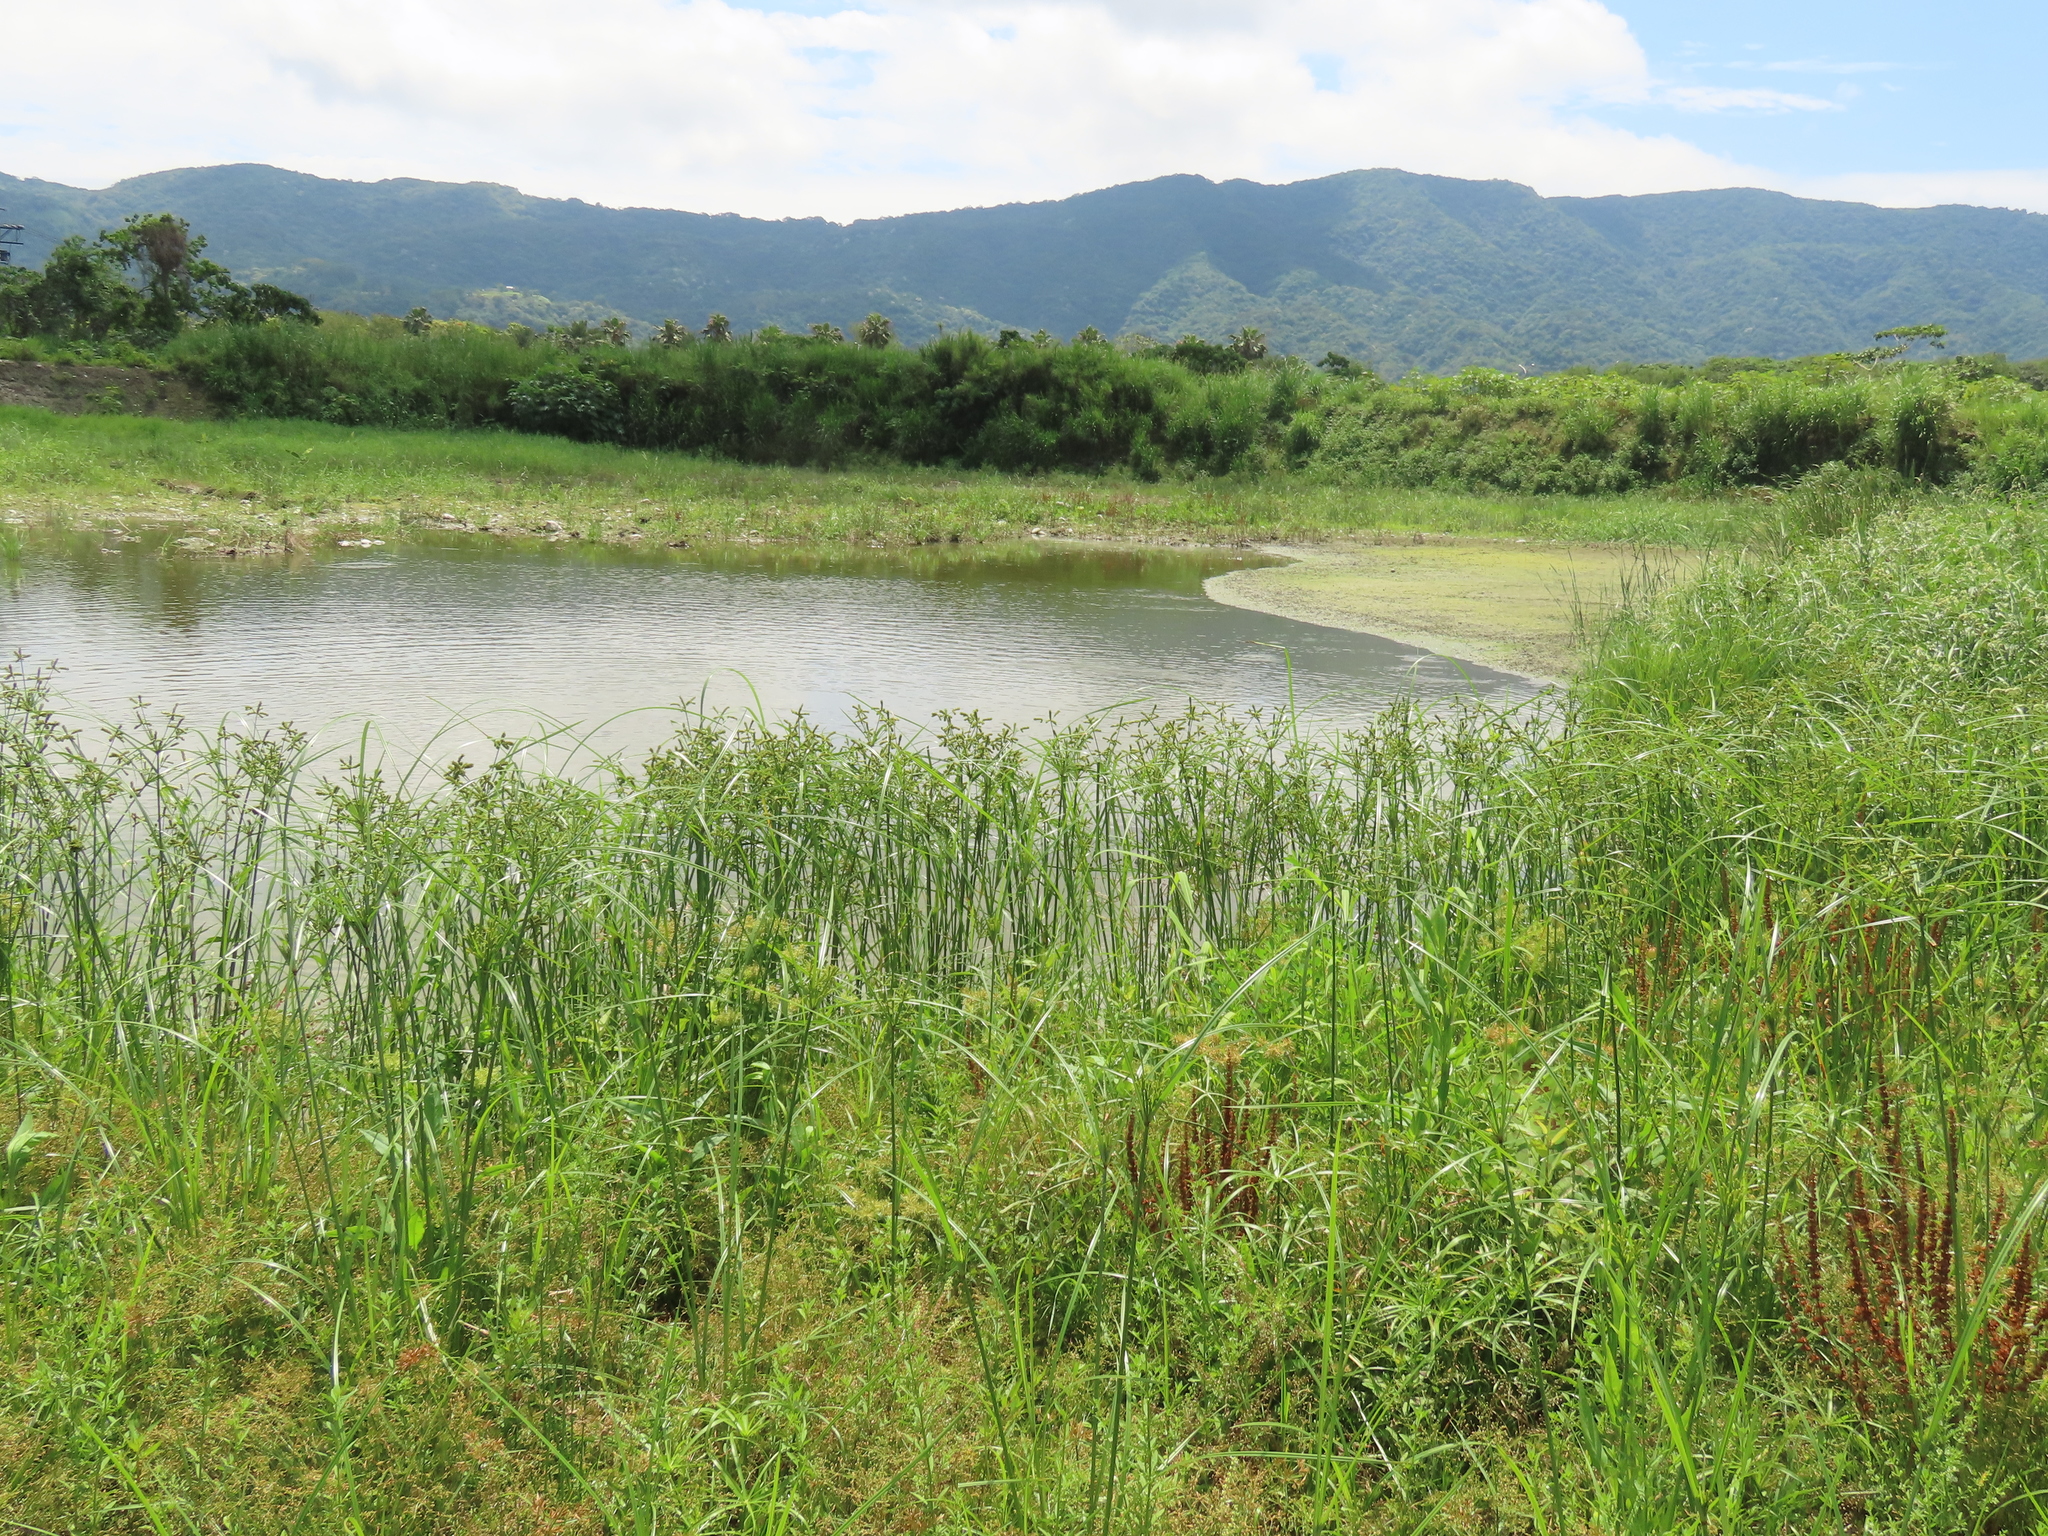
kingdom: Plantae
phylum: Tracheophyta
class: Liliopsida
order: Poales
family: Cyperaceae
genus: Cyperus
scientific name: Cyperus imbricatus
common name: Shingle flatsedge
